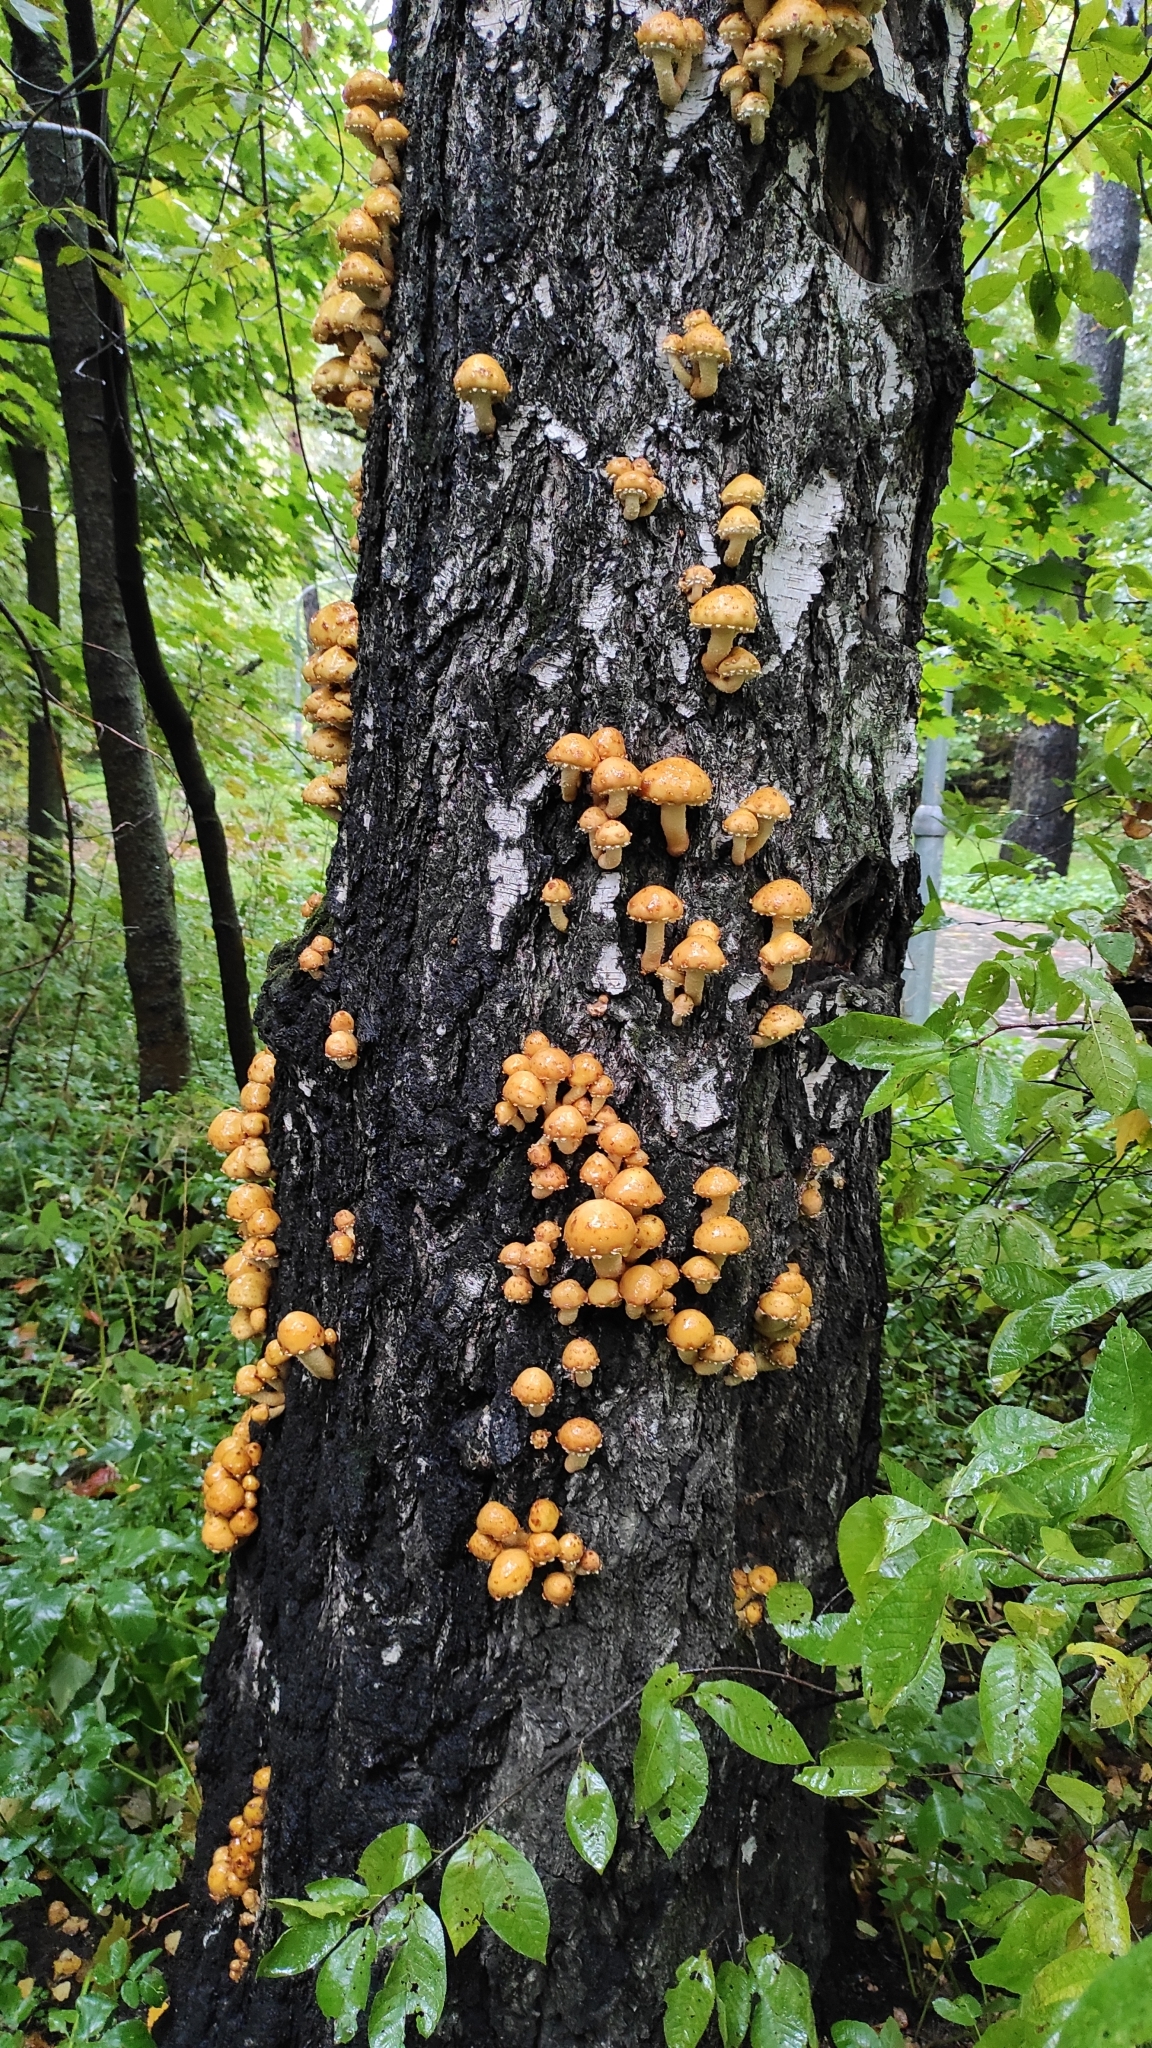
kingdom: Fungi
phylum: Basidiomycota
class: Agaricomycetes
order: Agaricales
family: Strophariaceae
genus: Pholiota
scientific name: Pholiota aurivella
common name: Golden scalycap
